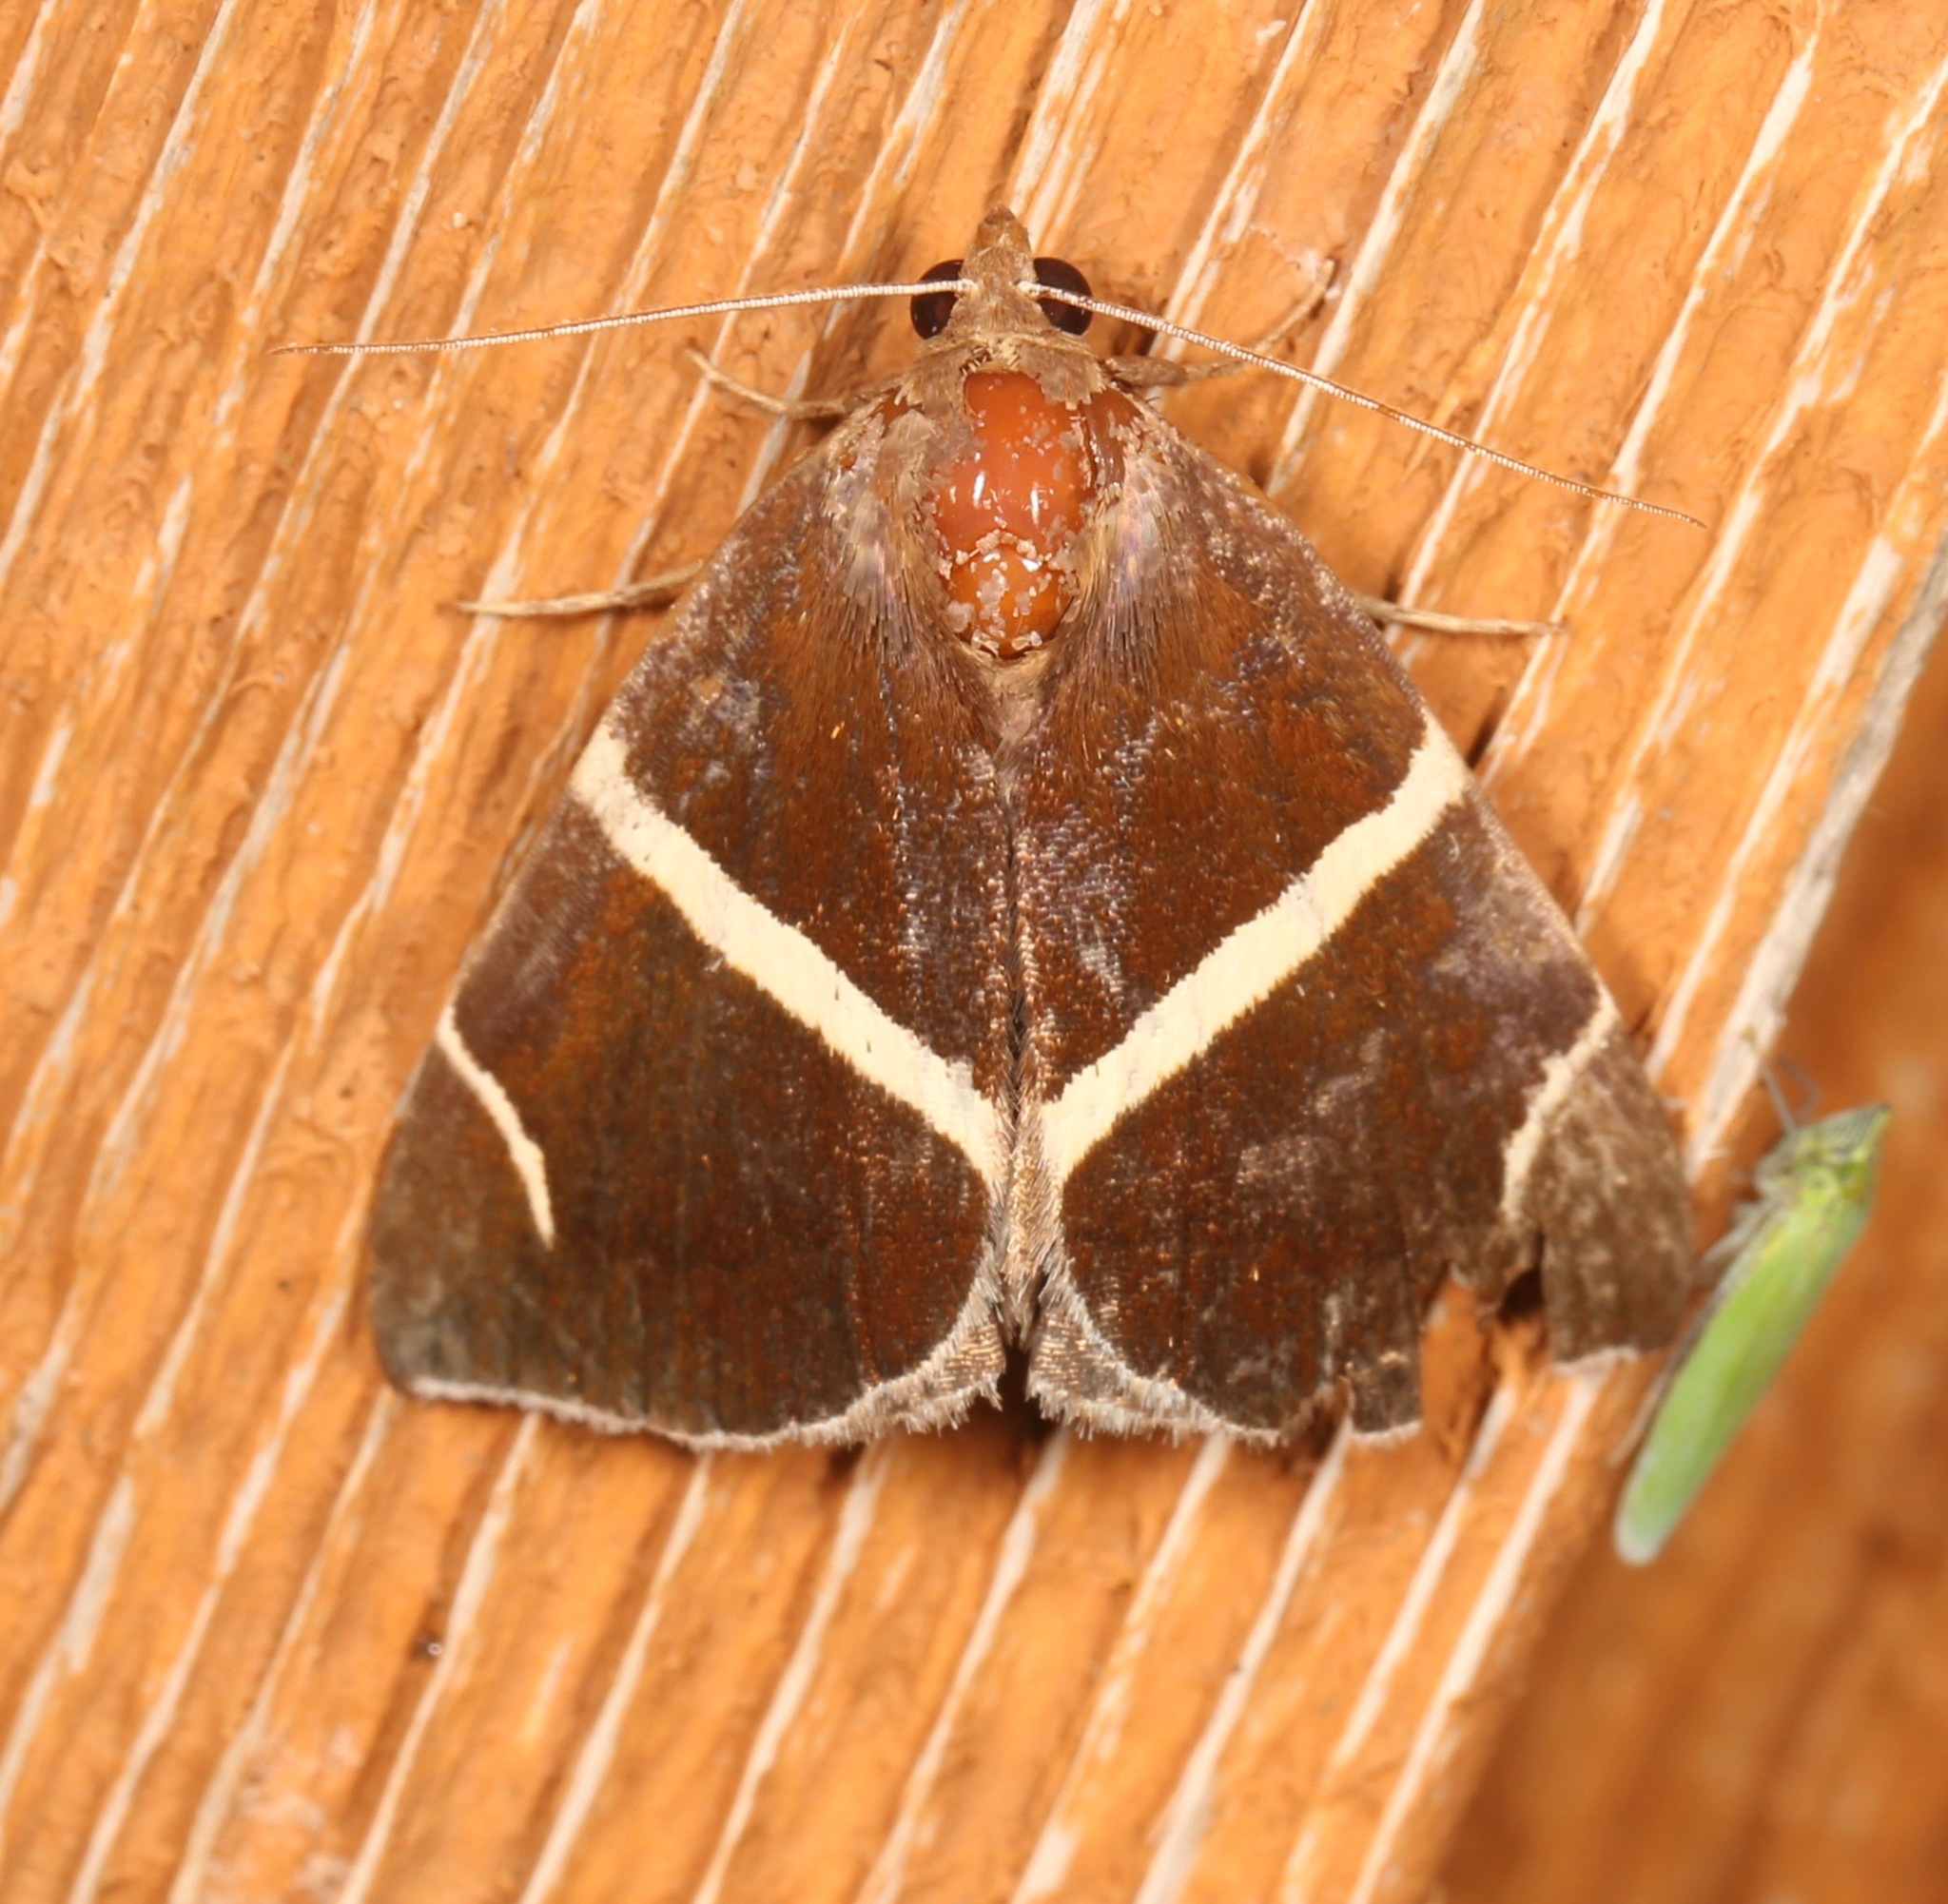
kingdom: Animalia
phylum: Arthropoda
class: Insecta
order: Lepidoptera
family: Erebidae
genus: Argyrostrotis
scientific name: Argyrostrotis anilis
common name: Short-lined chocolate
